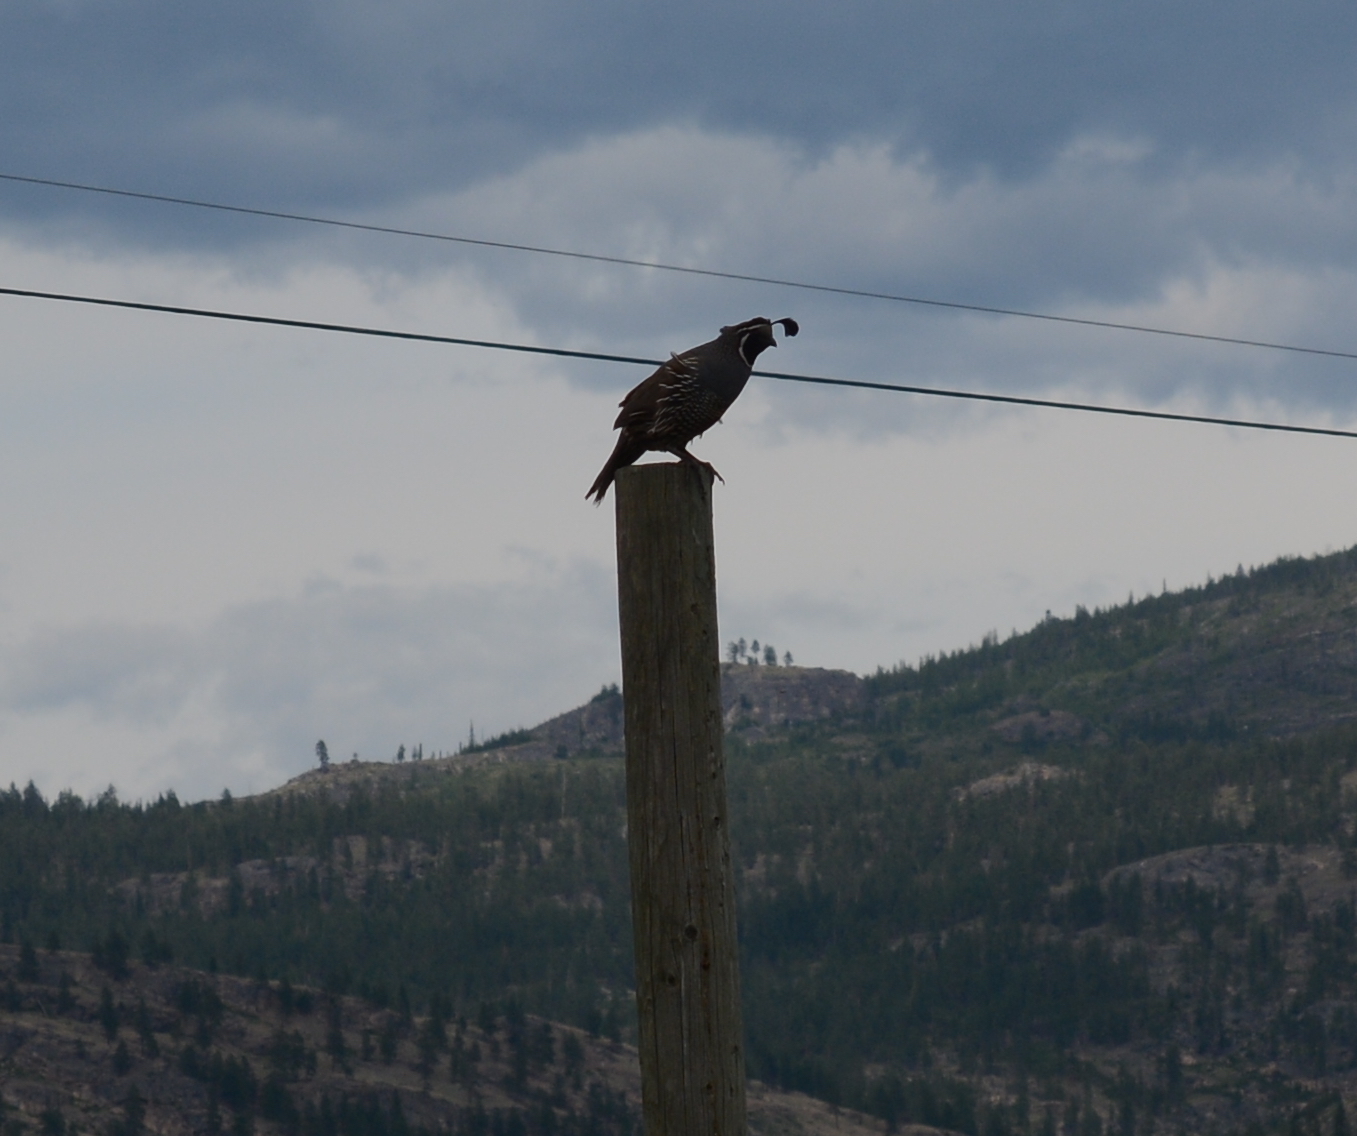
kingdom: Animalia
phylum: Chordata
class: Aves
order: Galliformes
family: Odontophoridae
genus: Callipepla
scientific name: Callipepla californica
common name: California quail
